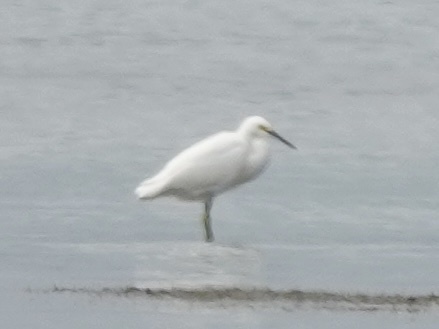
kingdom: Animalia
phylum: Chordata
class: Aves
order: Pelecaniformes
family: Ardeidae
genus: Egretta
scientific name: Egretta thula
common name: Snowy egret
